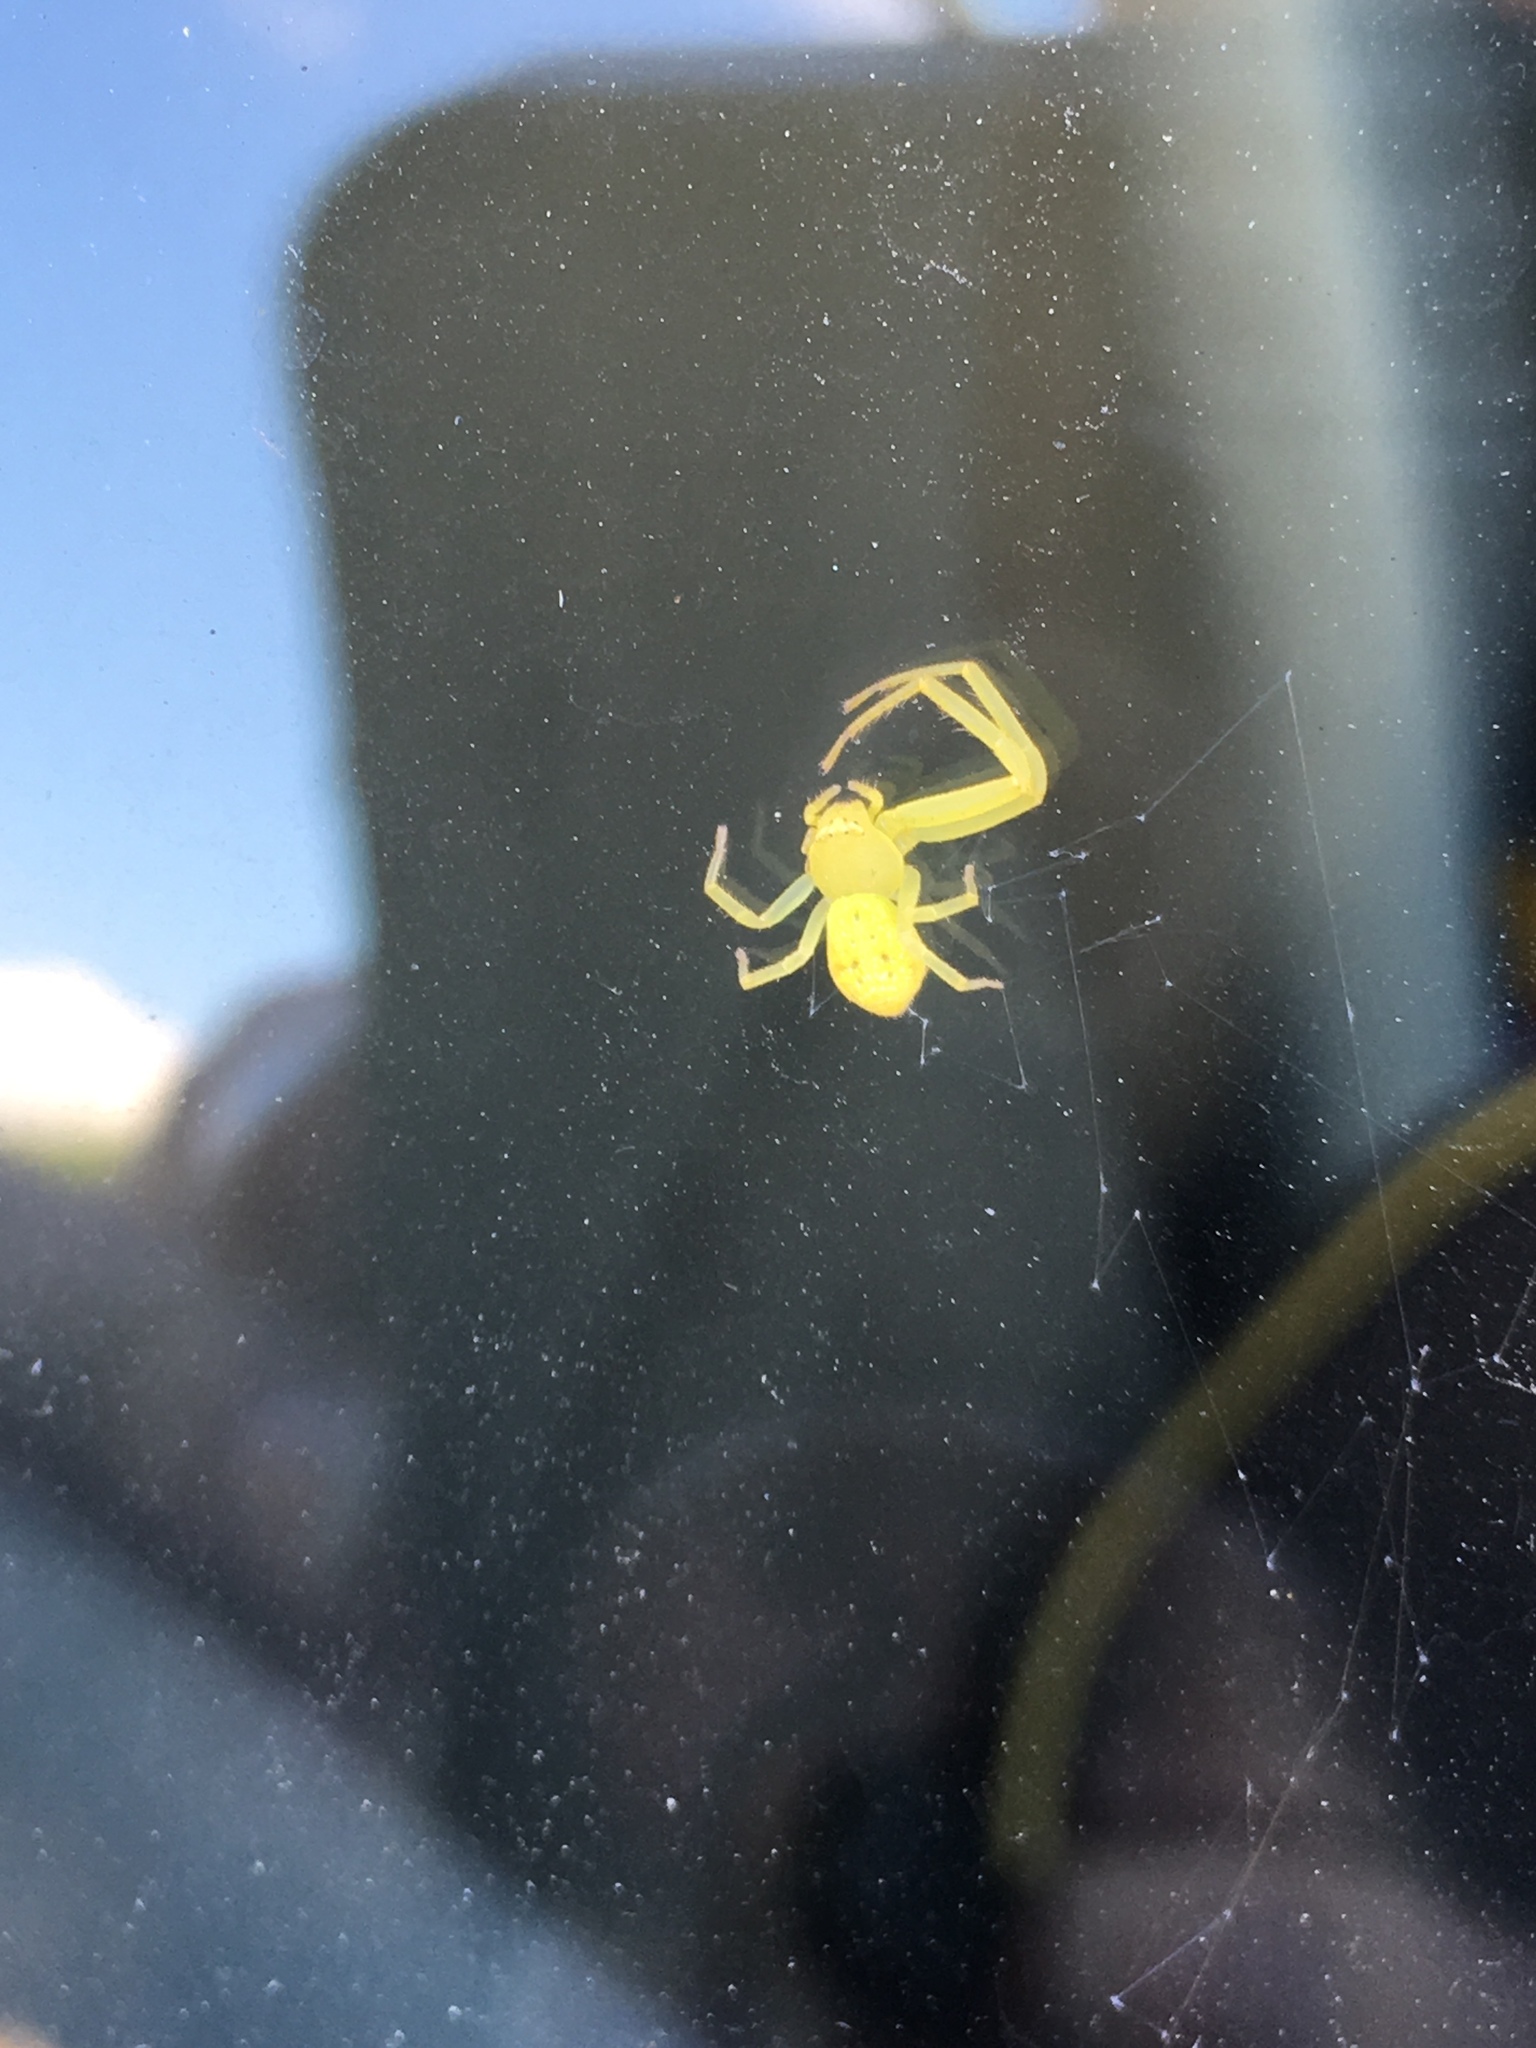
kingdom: Animalia
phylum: Arthropoda
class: Arachnida
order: Araneae
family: Thomisidae
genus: Misumessus
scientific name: Misumessus oblongus
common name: American green crab spider
